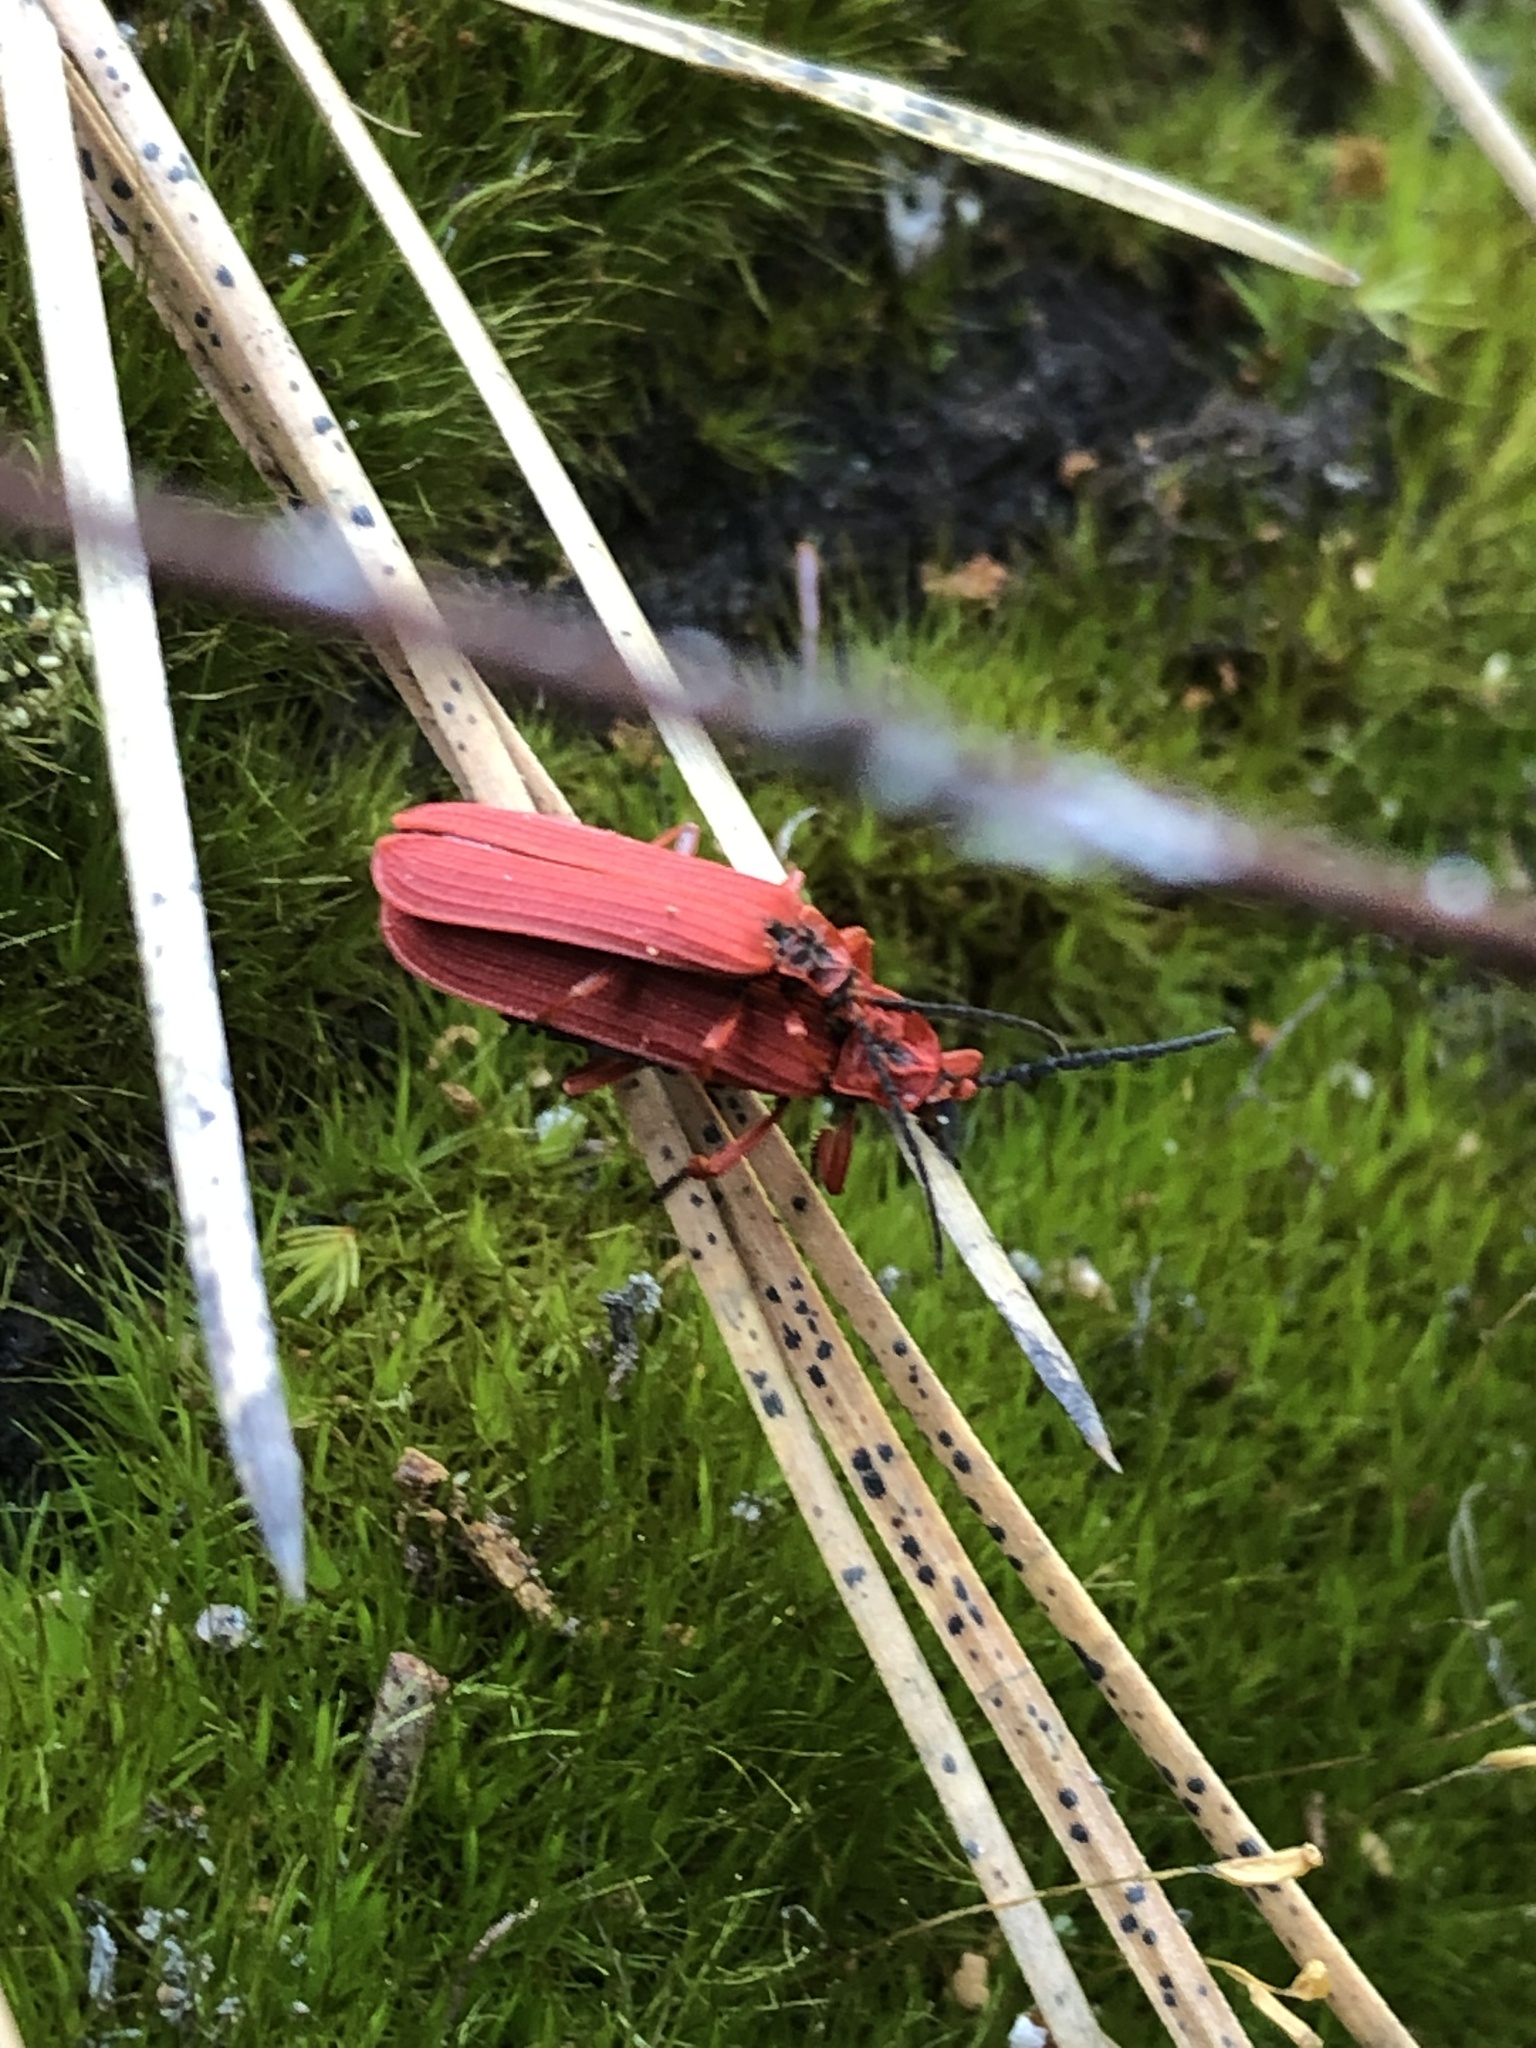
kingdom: Animalia
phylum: Arthropoda
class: Insecta
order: Coleoptera
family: Lycidae
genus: Dictyoptera
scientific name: Dictyoptera simplicipes
